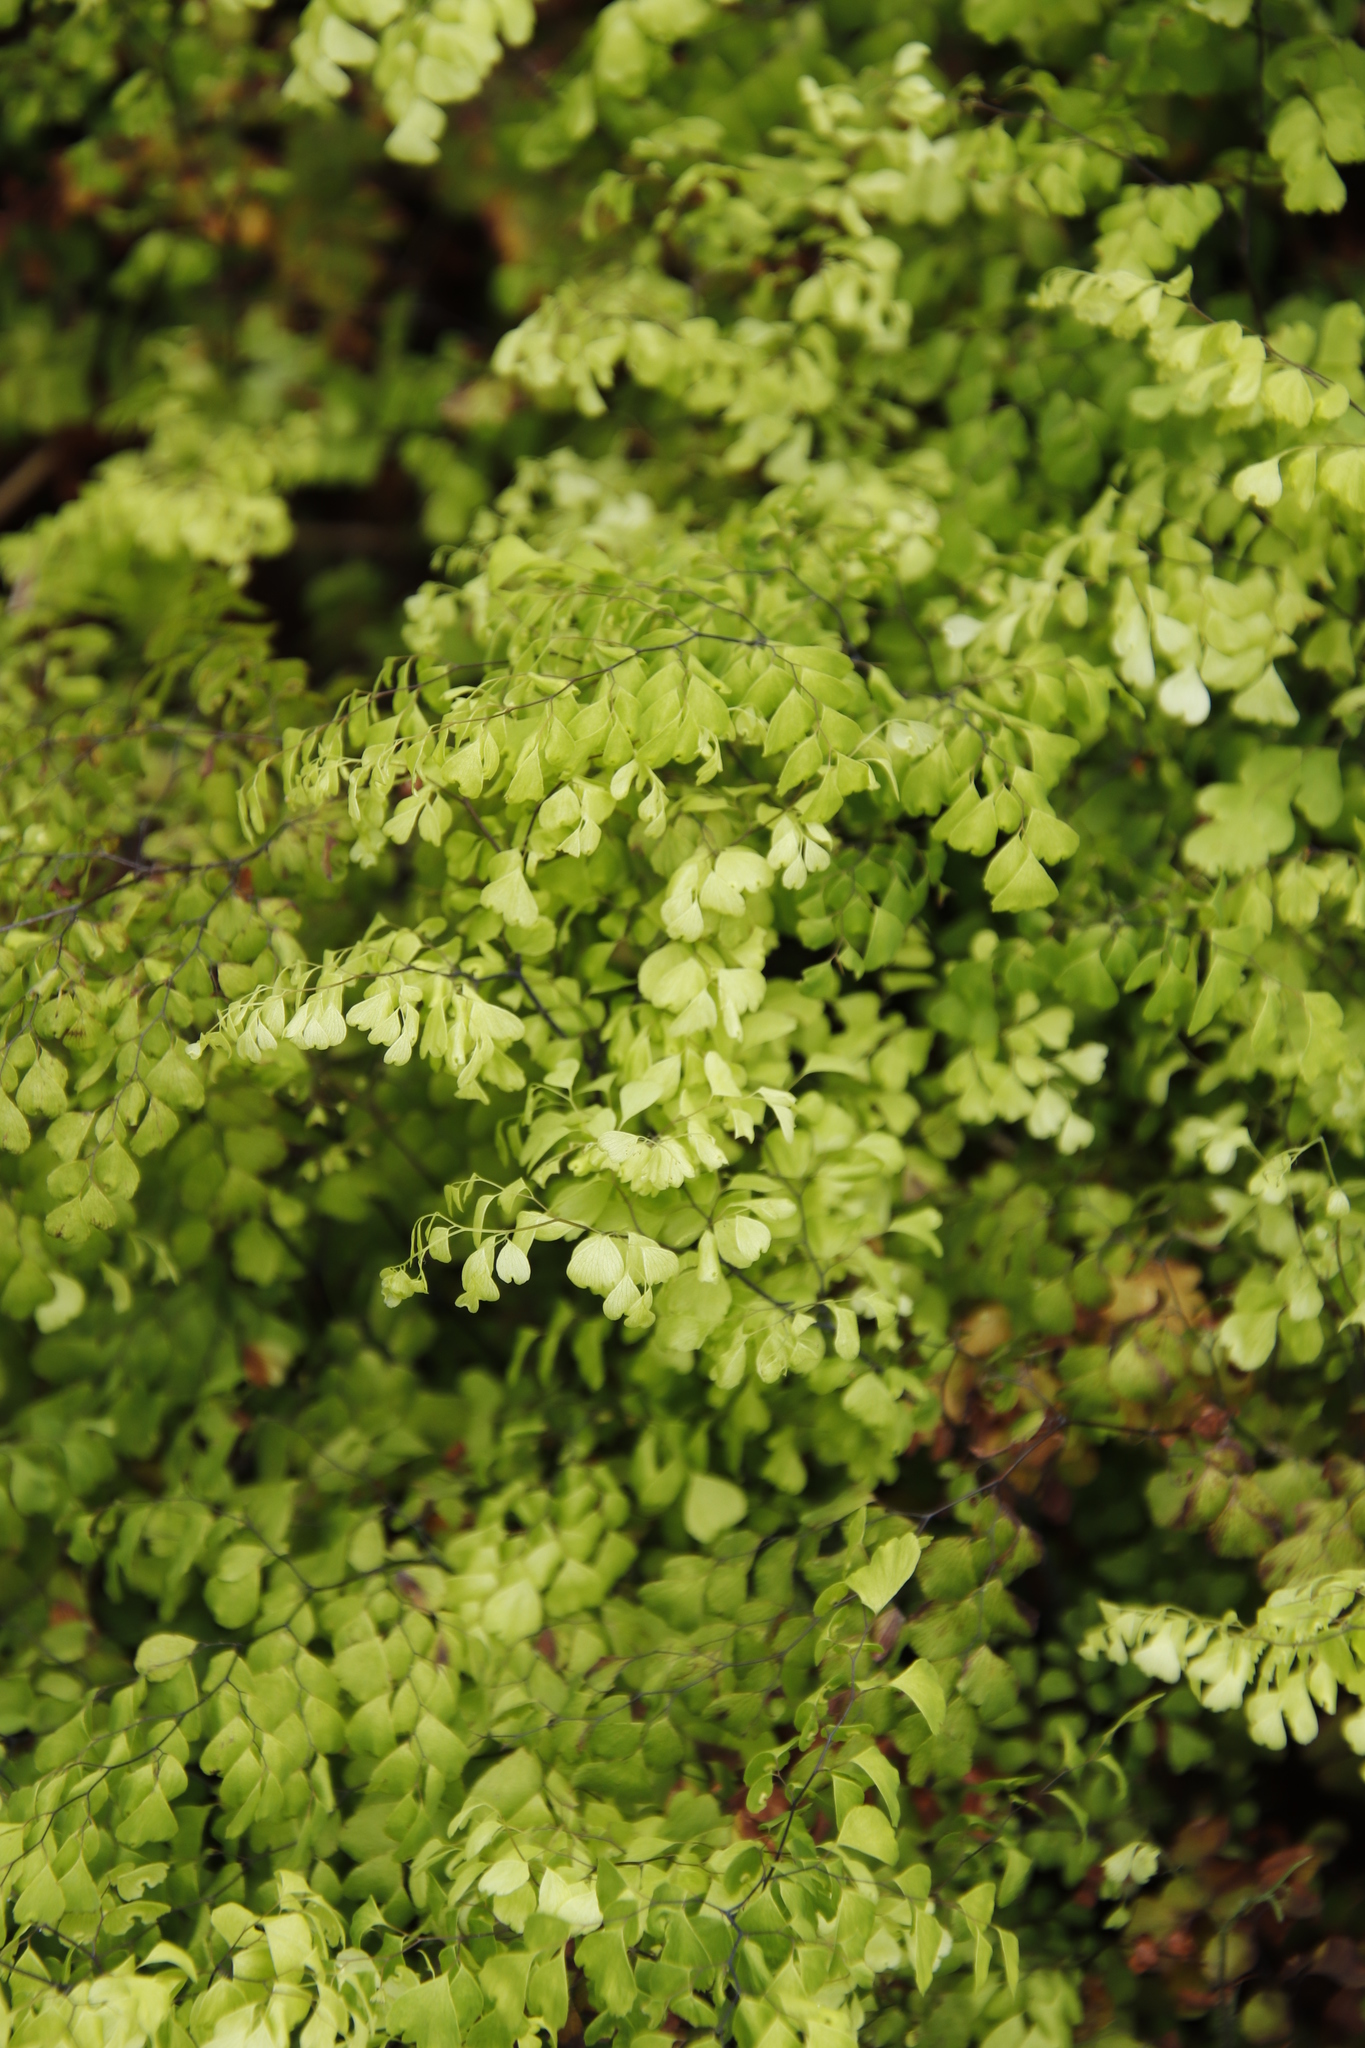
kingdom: Plantae
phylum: Tracheophyta
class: Polypodiopsida
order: Polypodiales
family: Pteridaceae
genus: Adiantum
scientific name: Adiantum aethiopicum
